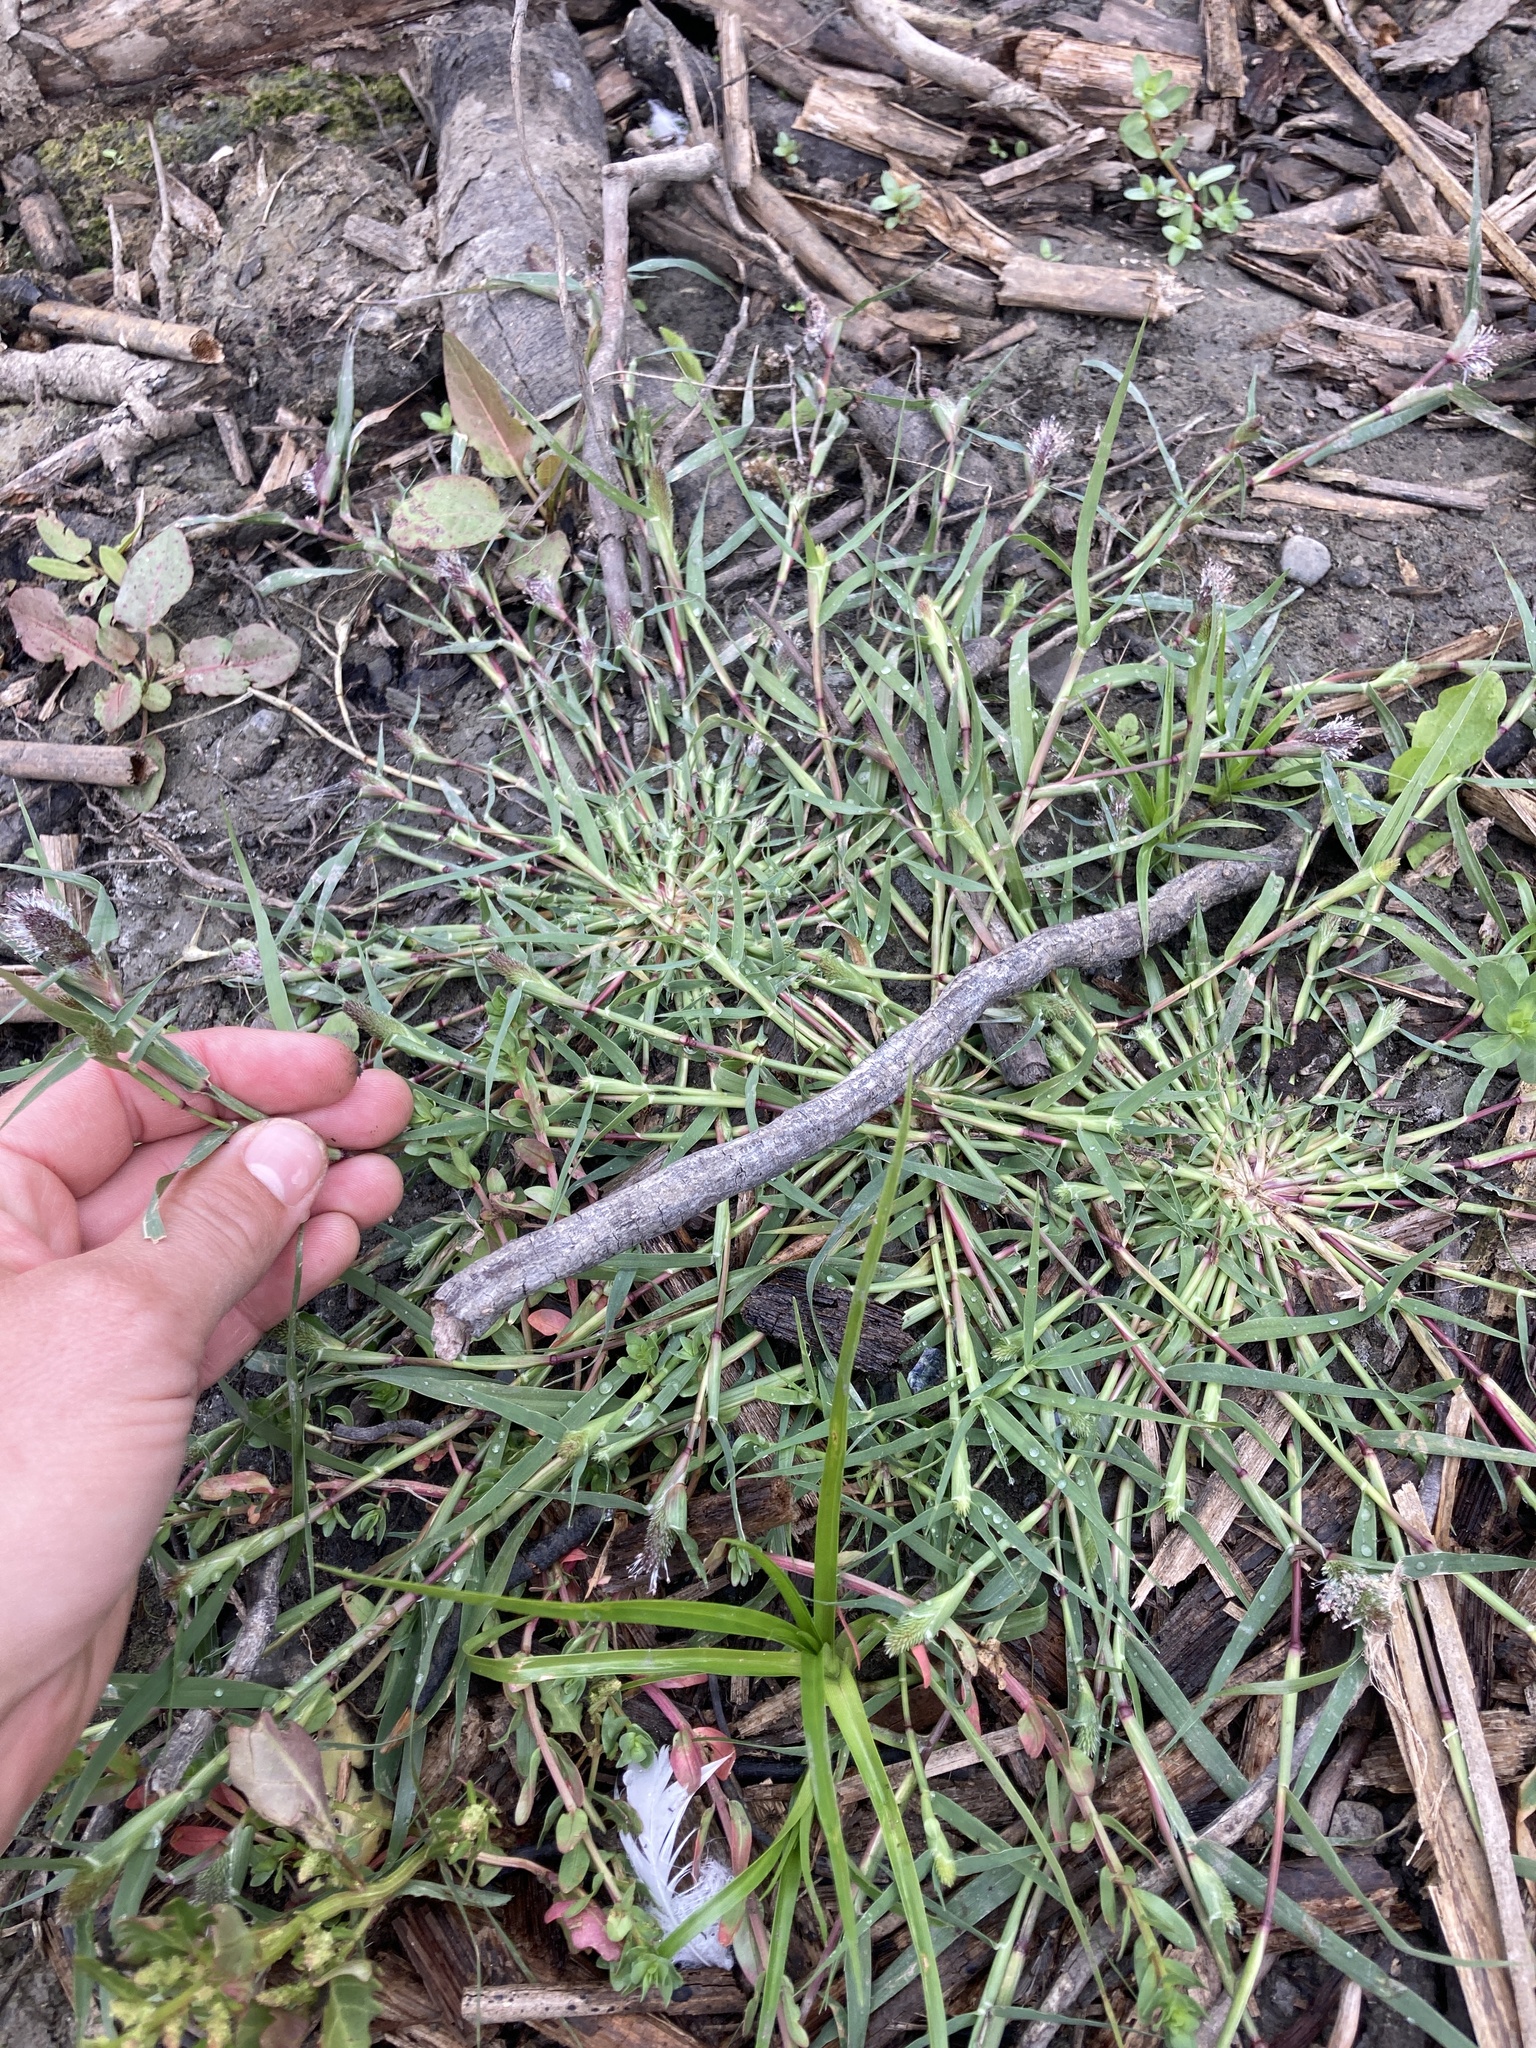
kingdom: Plantae
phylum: Tracheophyta
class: Liliopsida
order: Poales
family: Poaceae
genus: Sporobolus
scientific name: Sporobolus schoenoides
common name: Rush-like timothy
